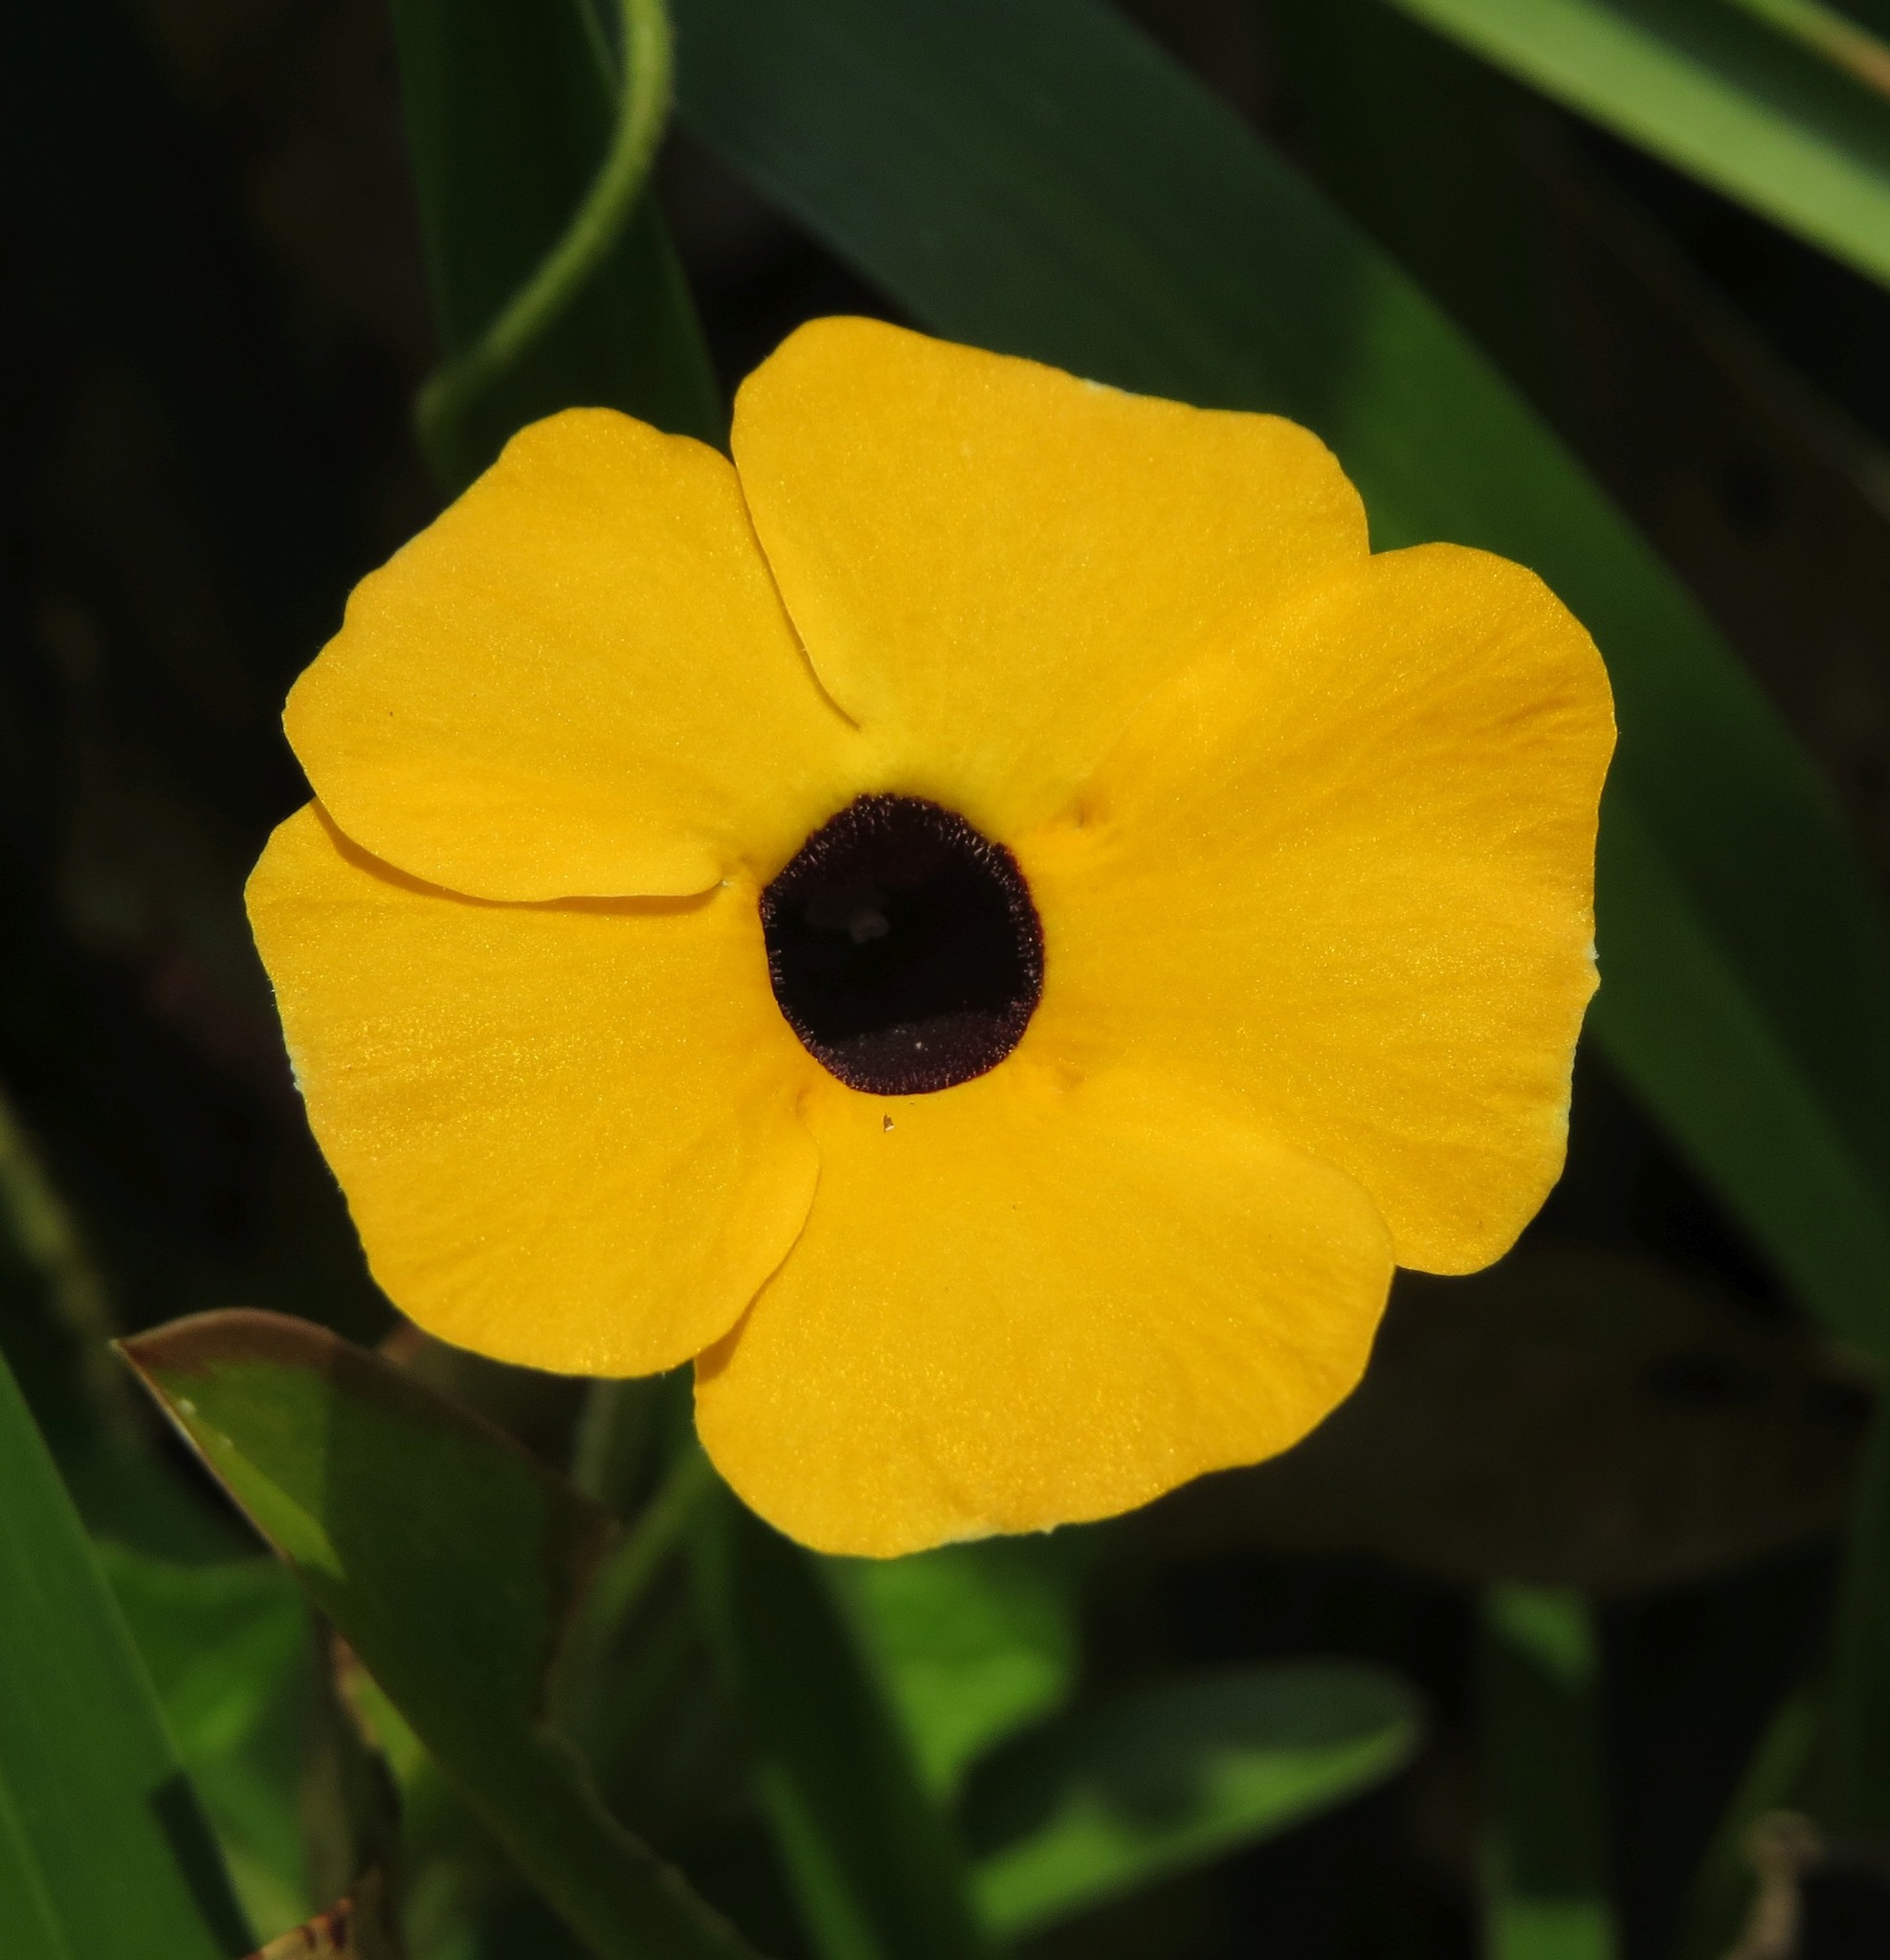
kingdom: Plantae
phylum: Tracheophyta
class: Magnoliopsida
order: Lamiales
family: Acanthaceae
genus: Thunbergia
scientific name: Thunbergia alata
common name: Blackeyed susan vine
